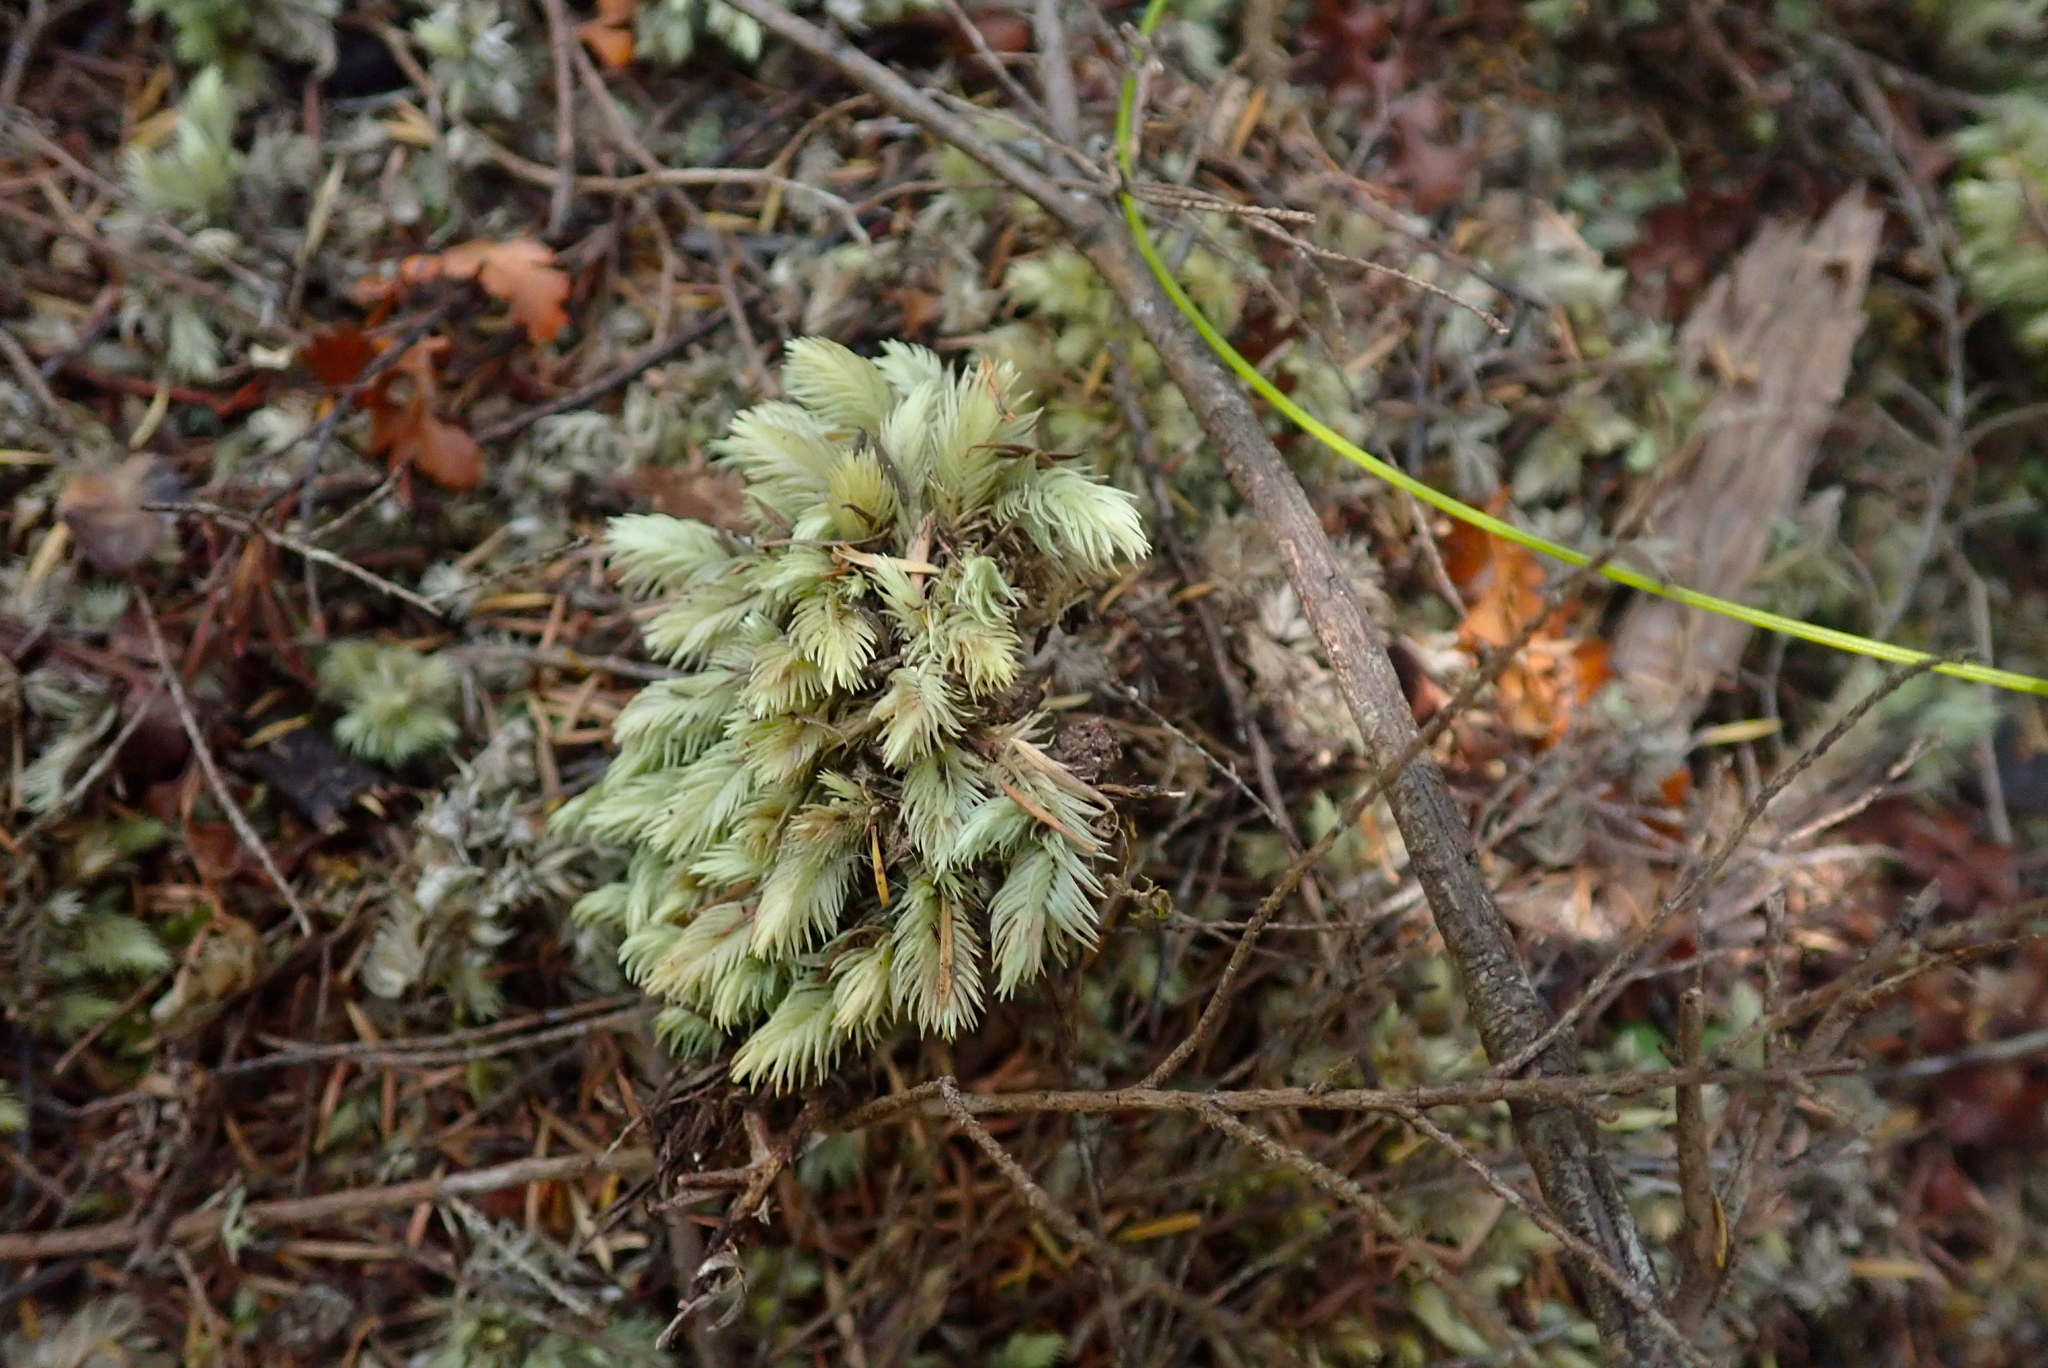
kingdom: Plantae
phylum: Bryophyta
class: Bryopsida
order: Dicranales
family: Leucobryaceae
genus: Leucobryum
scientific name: Leucobryum javense
